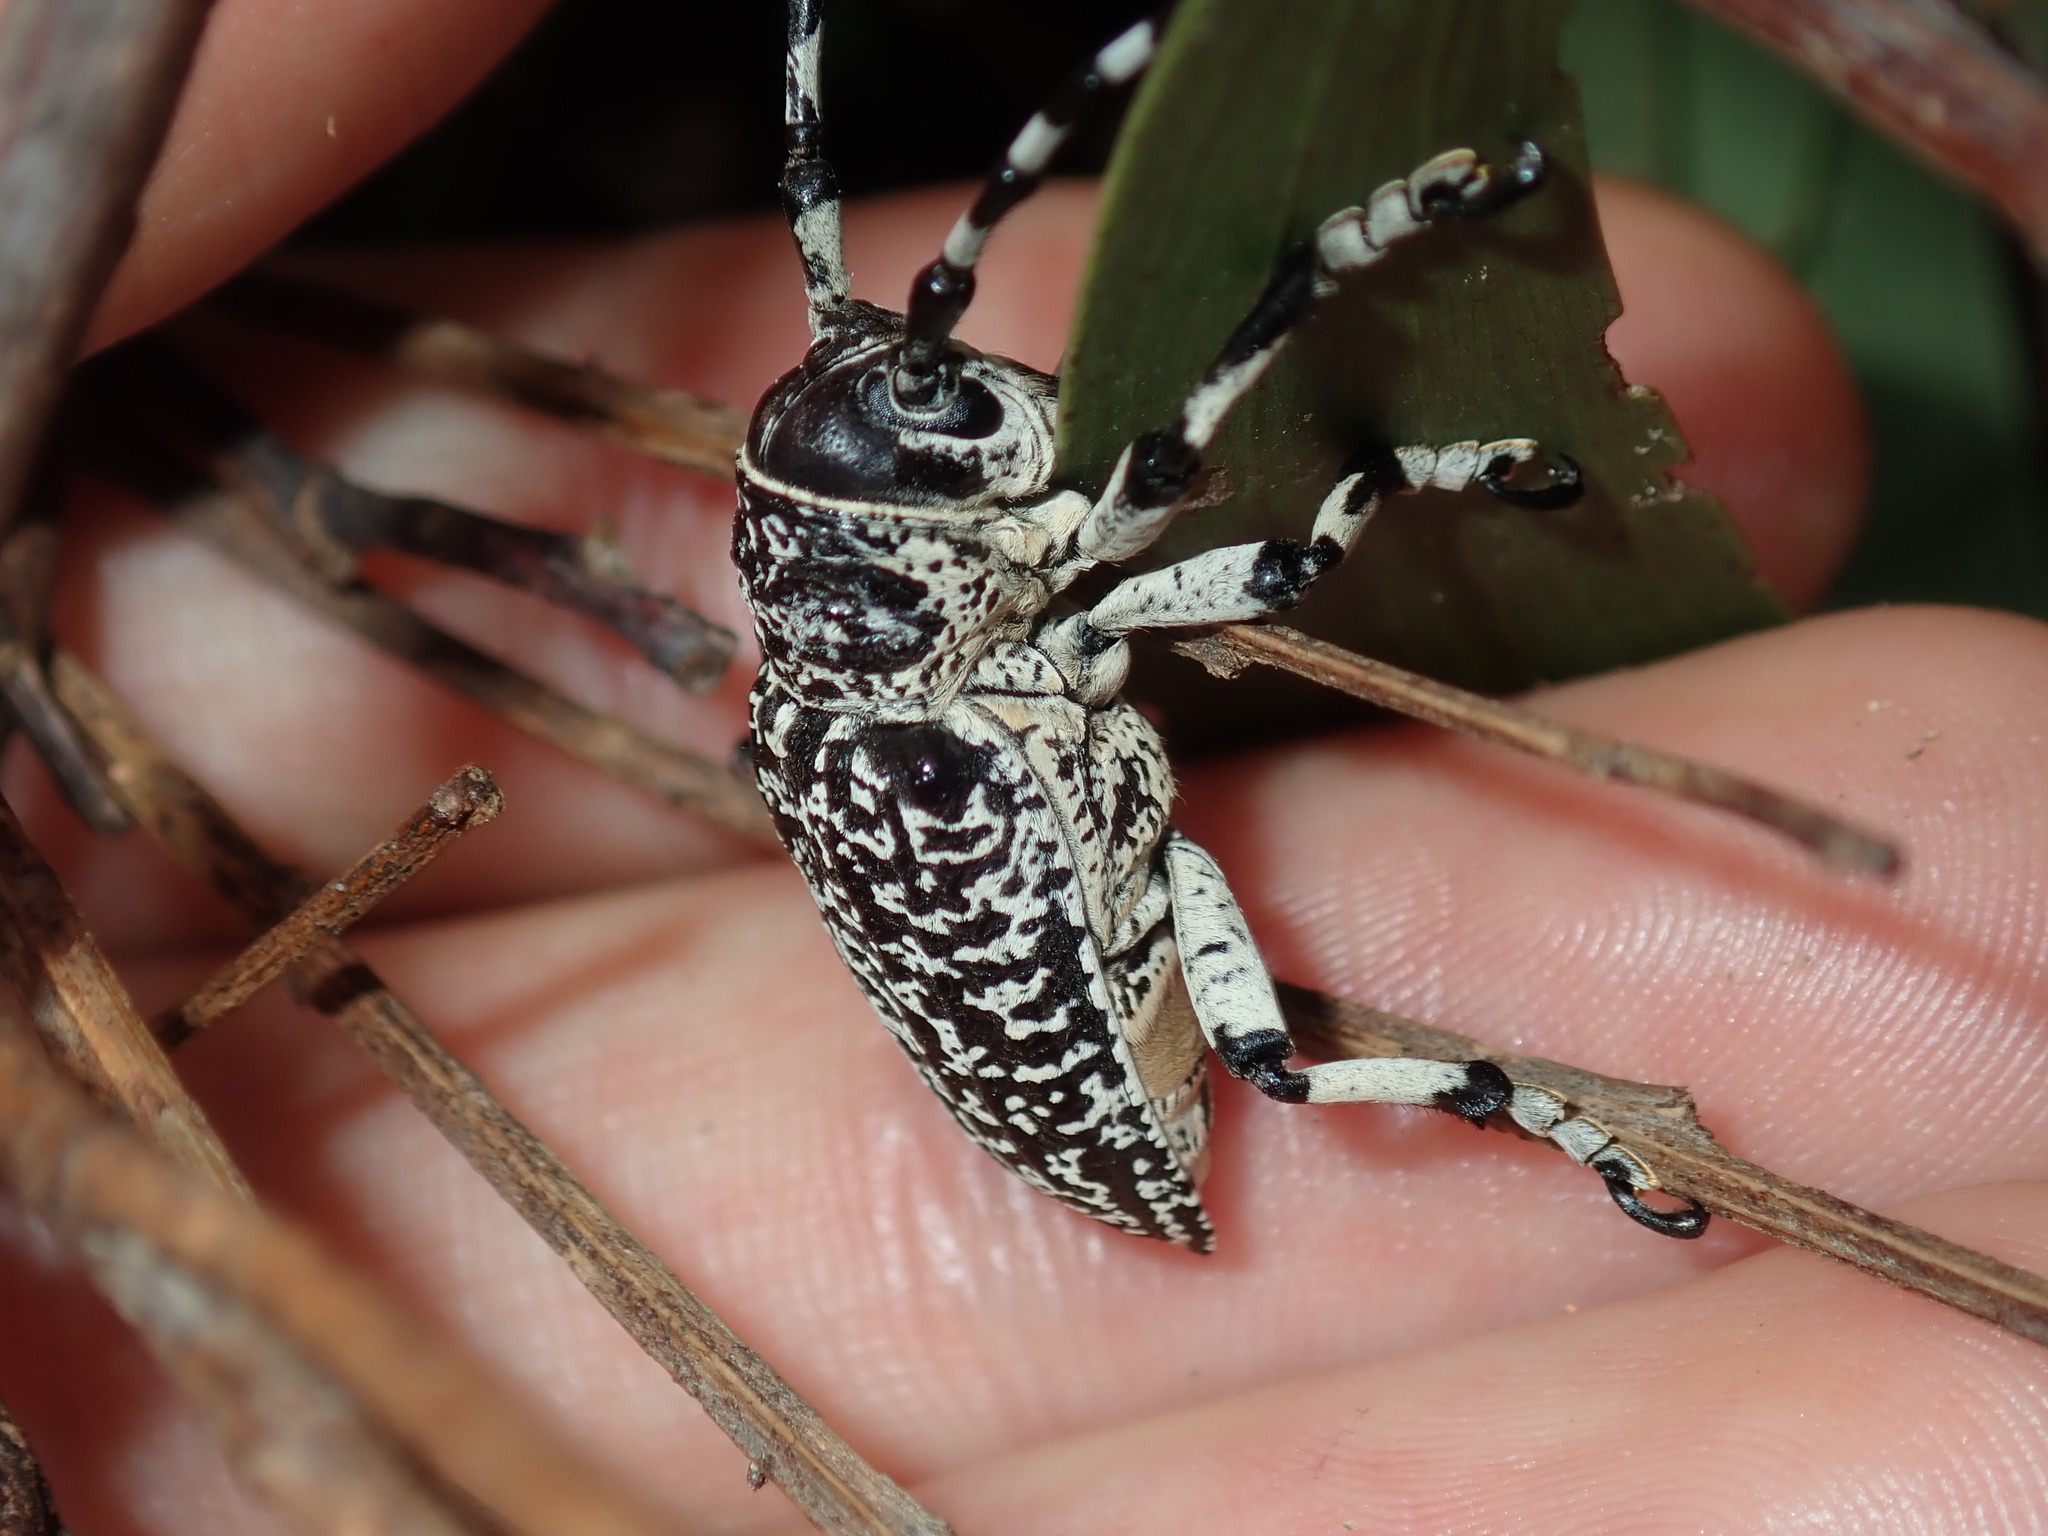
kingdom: Animalia
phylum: Arthropoda
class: Insecta
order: Coleoptera
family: Cerambycidae
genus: Rhytiphora
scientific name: Rhytiphora vermicularia
